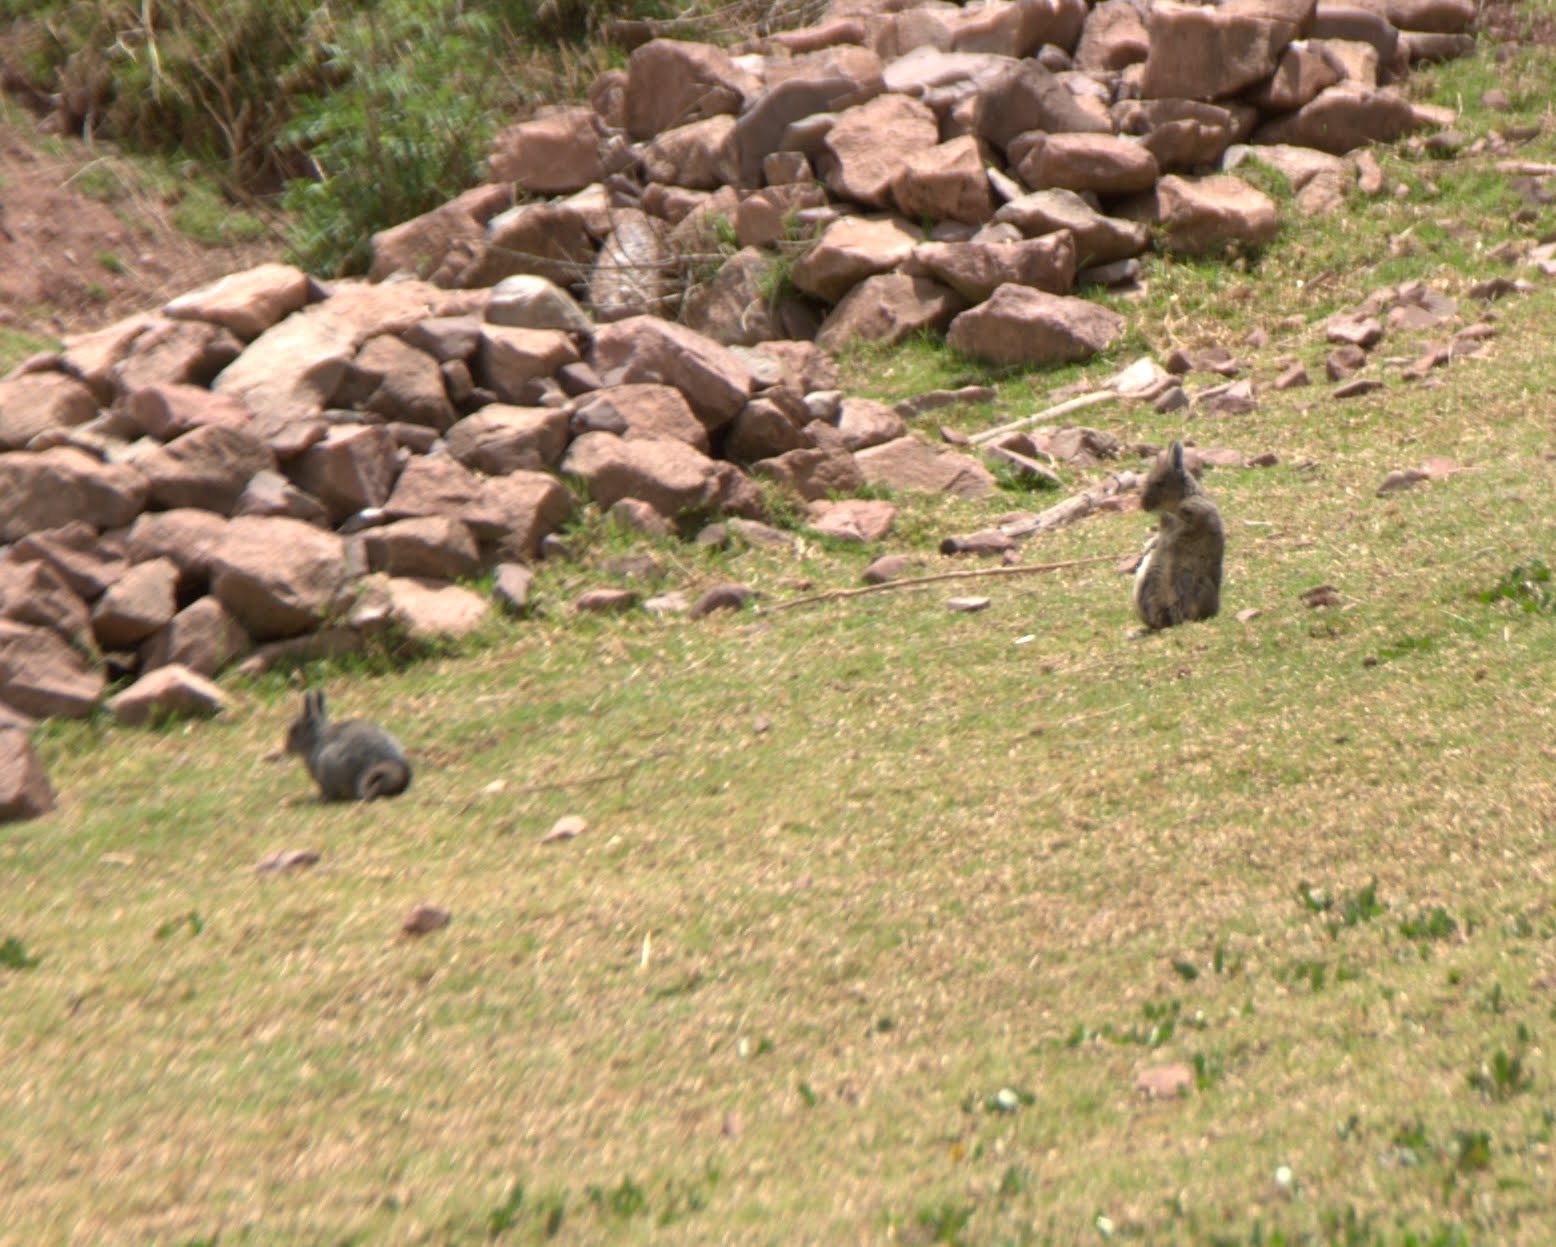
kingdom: Animalia
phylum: Chordata
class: Mammalia
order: Rodentia
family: Chinchillidae
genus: Lagidium
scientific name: Lagidium viscacia
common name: Southern viscacha
